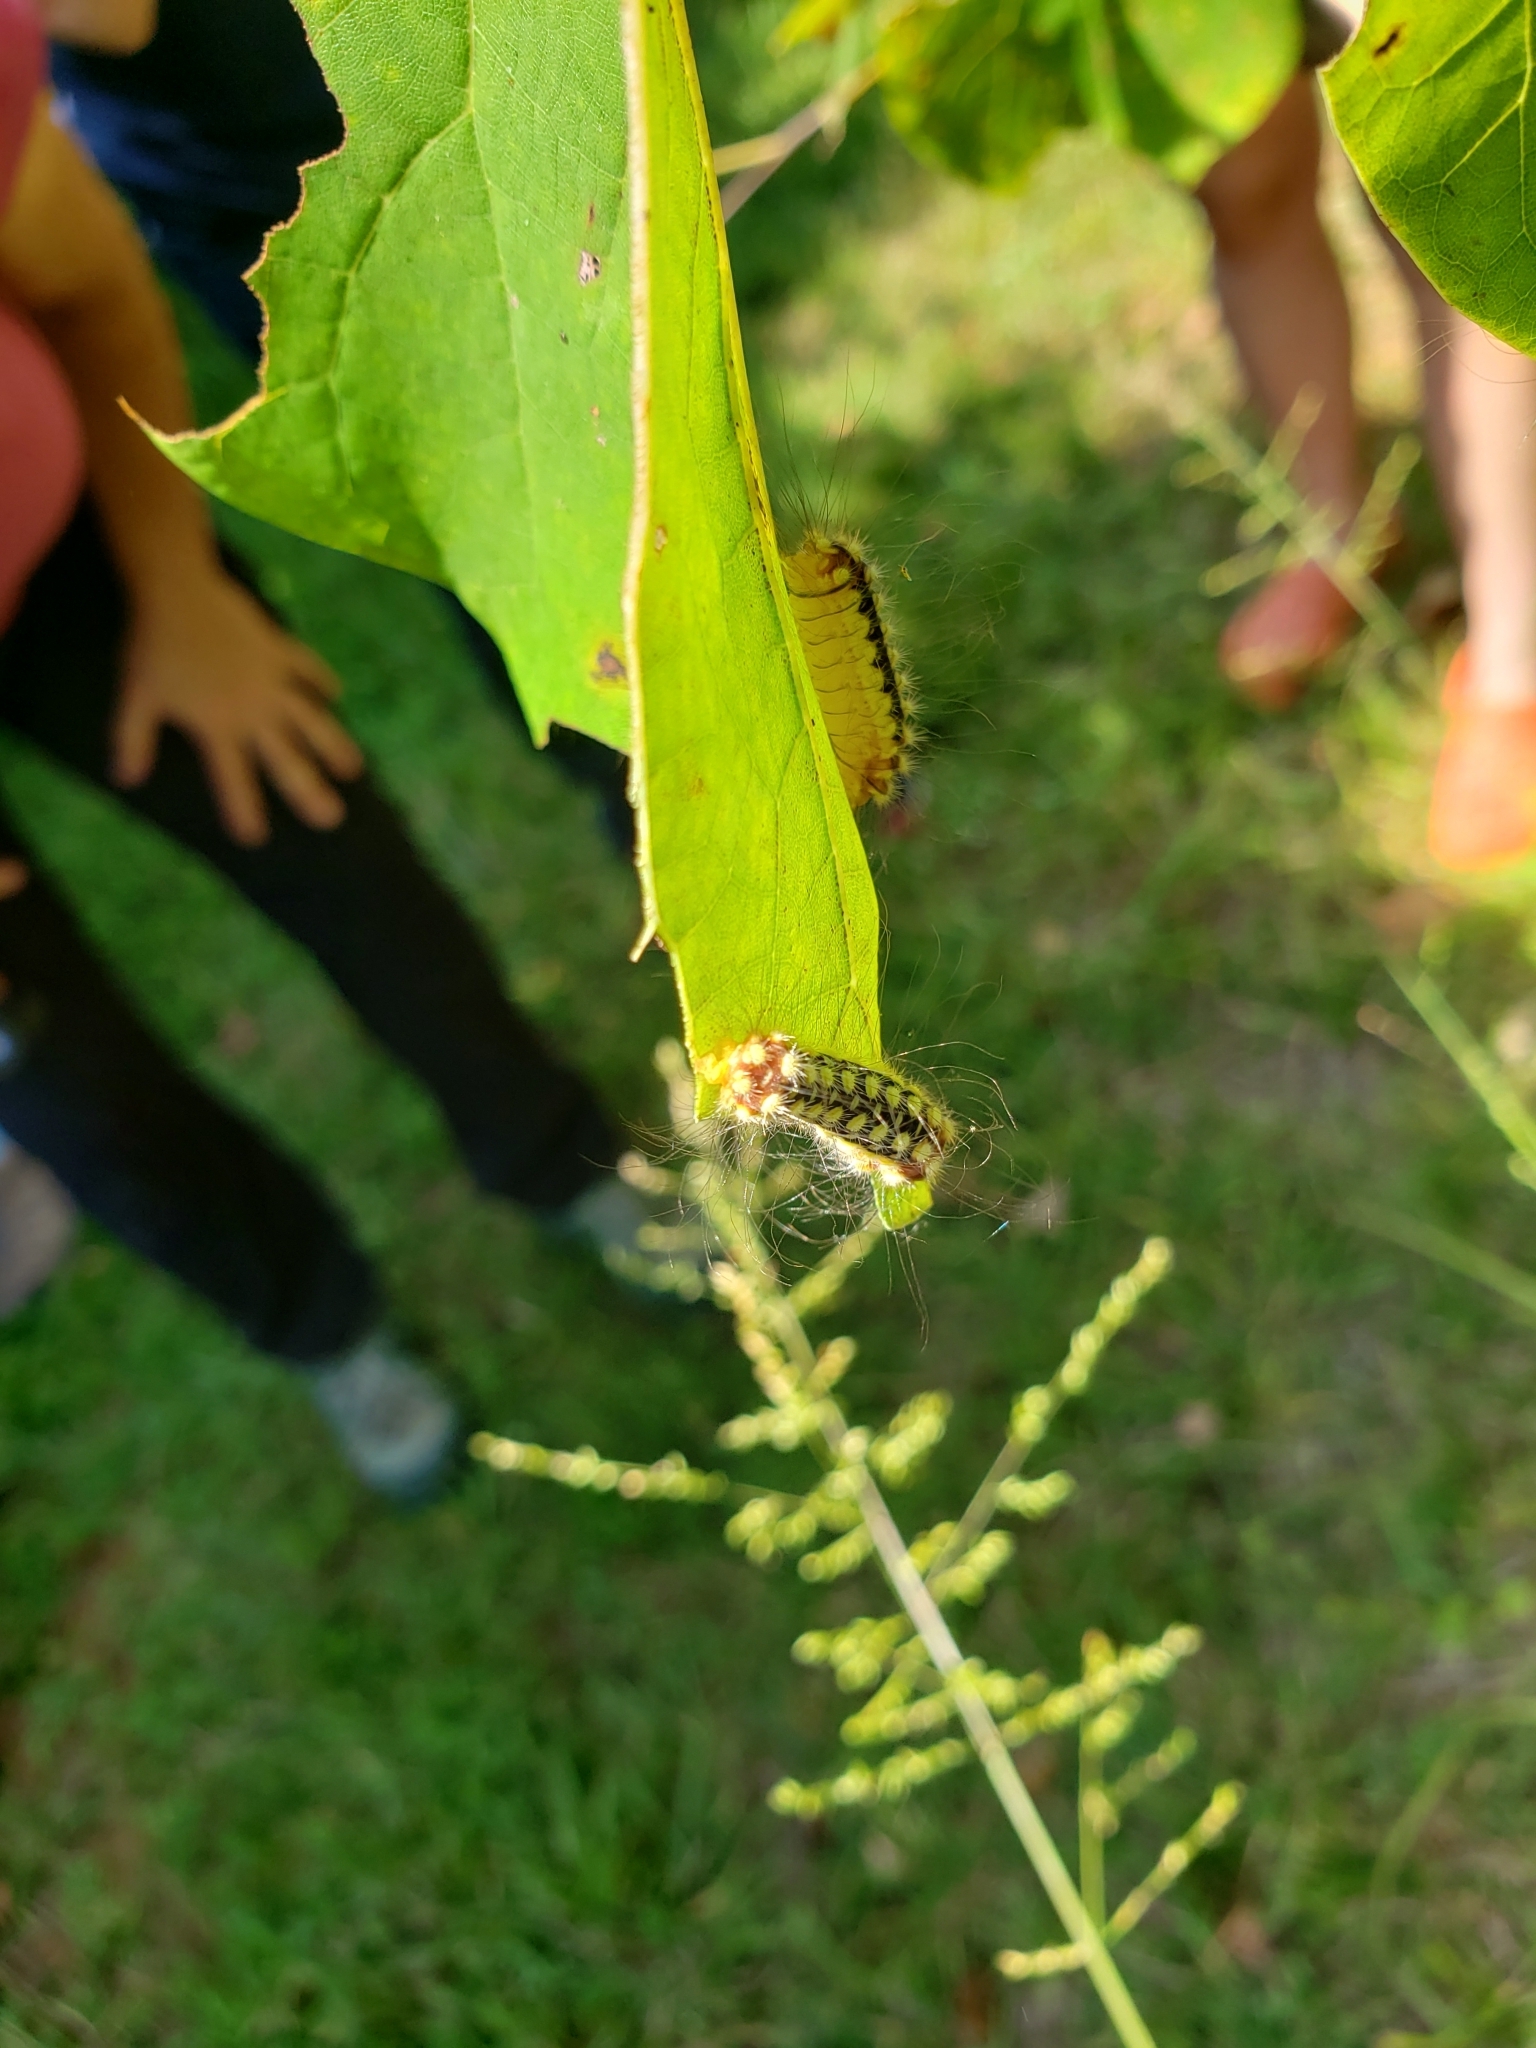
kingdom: Animalia
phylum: Arthropoda
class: Insecta
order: Lepidoptera
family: Megalopygidae
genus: Norape
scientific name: Norape cretata
